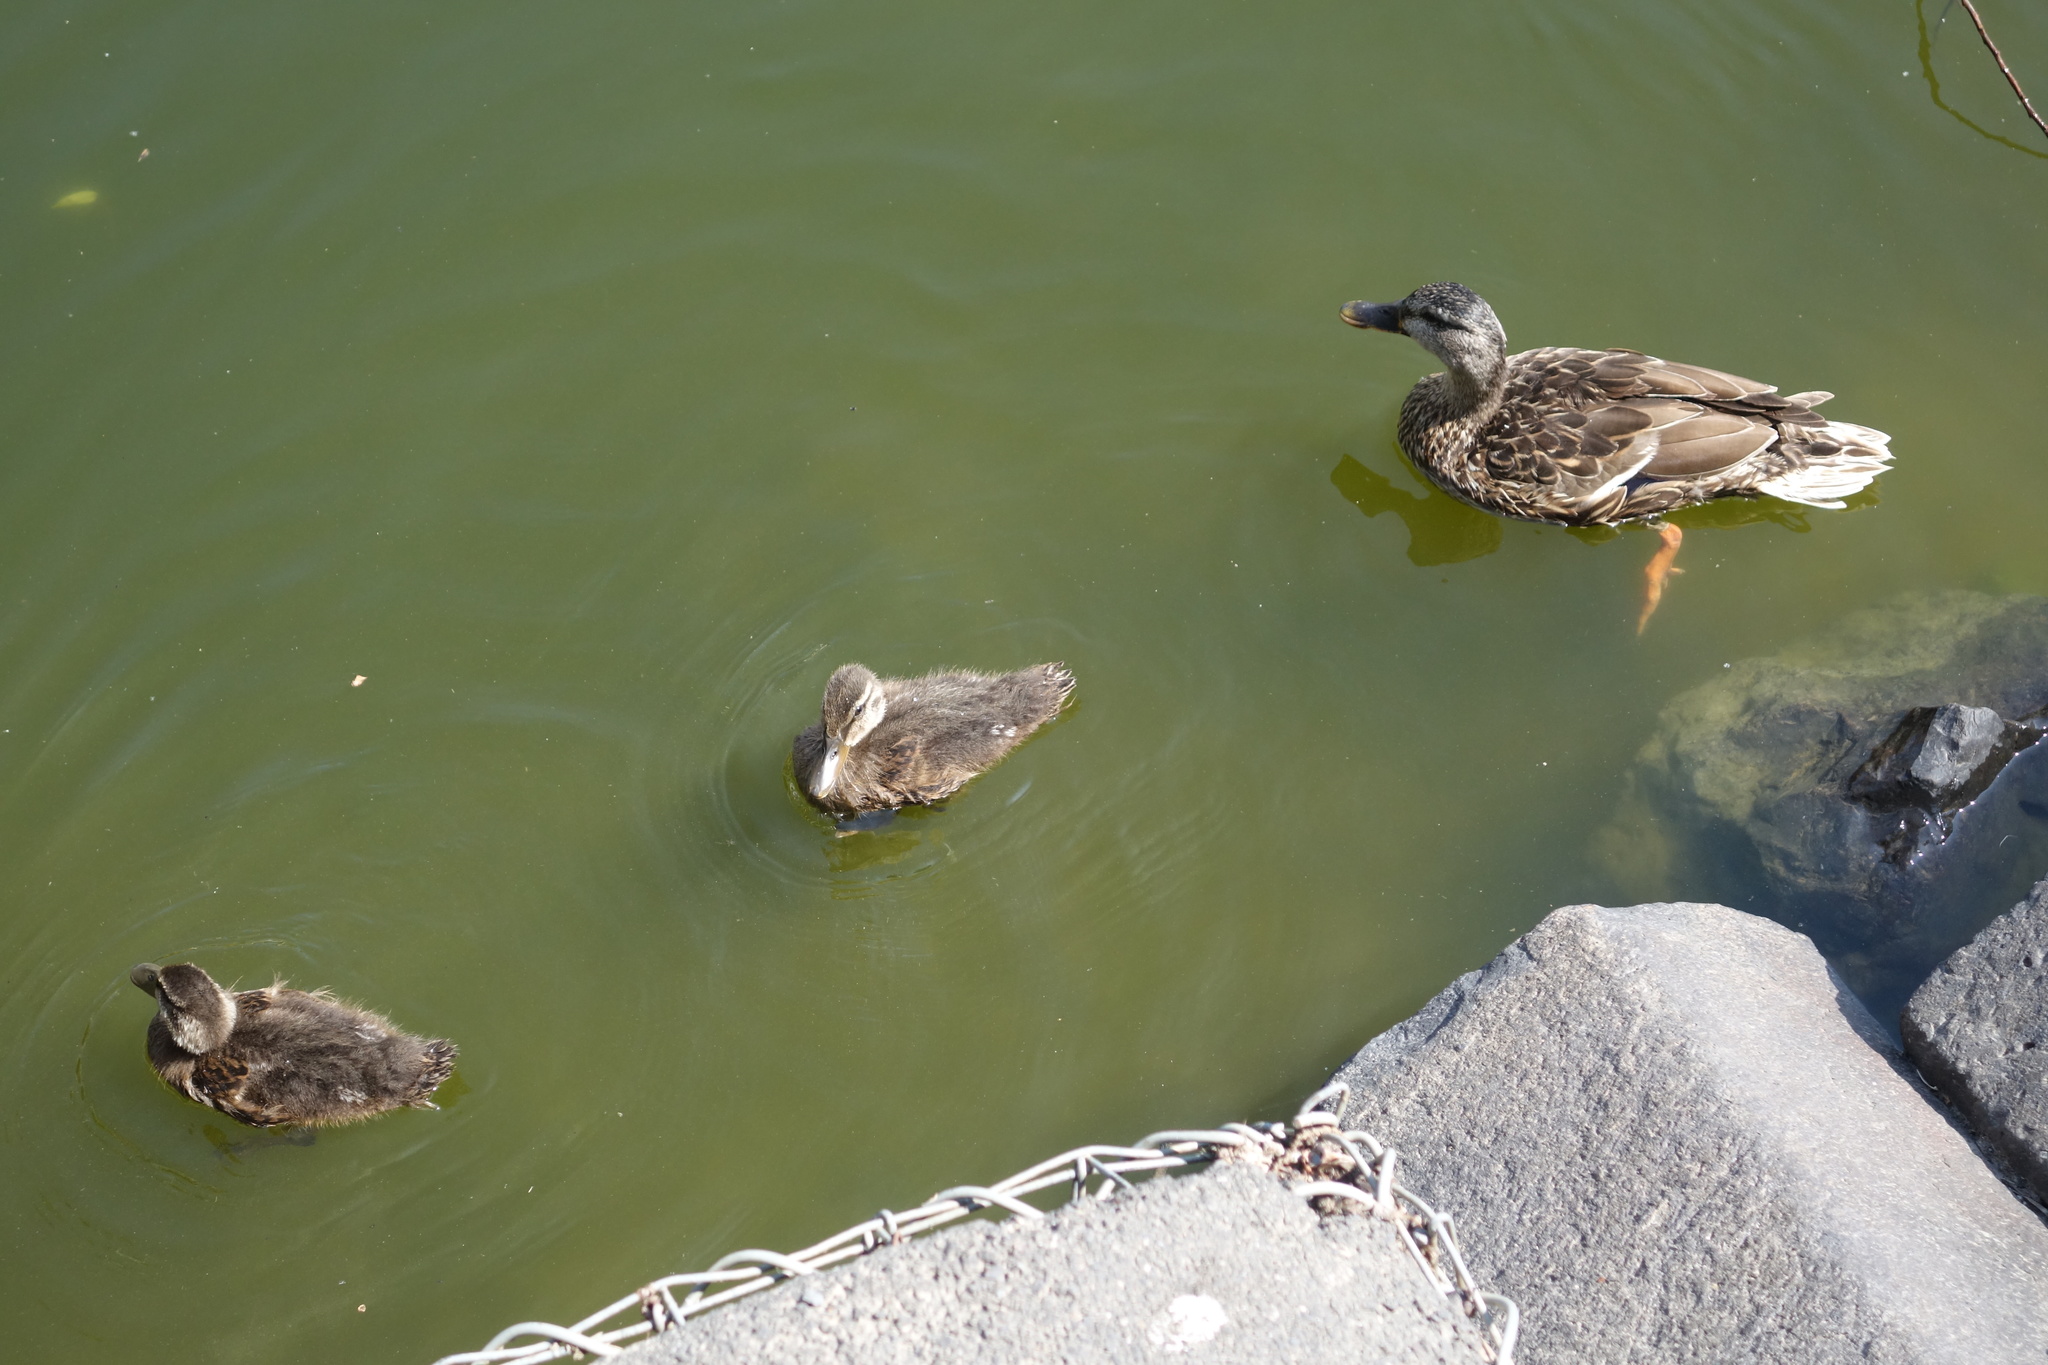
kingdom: Animalia
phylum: Chordata
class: Aves
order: Anseriformes
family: Anatidae
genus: Anas
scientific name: Anas platyrhynchos
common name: Mallard
